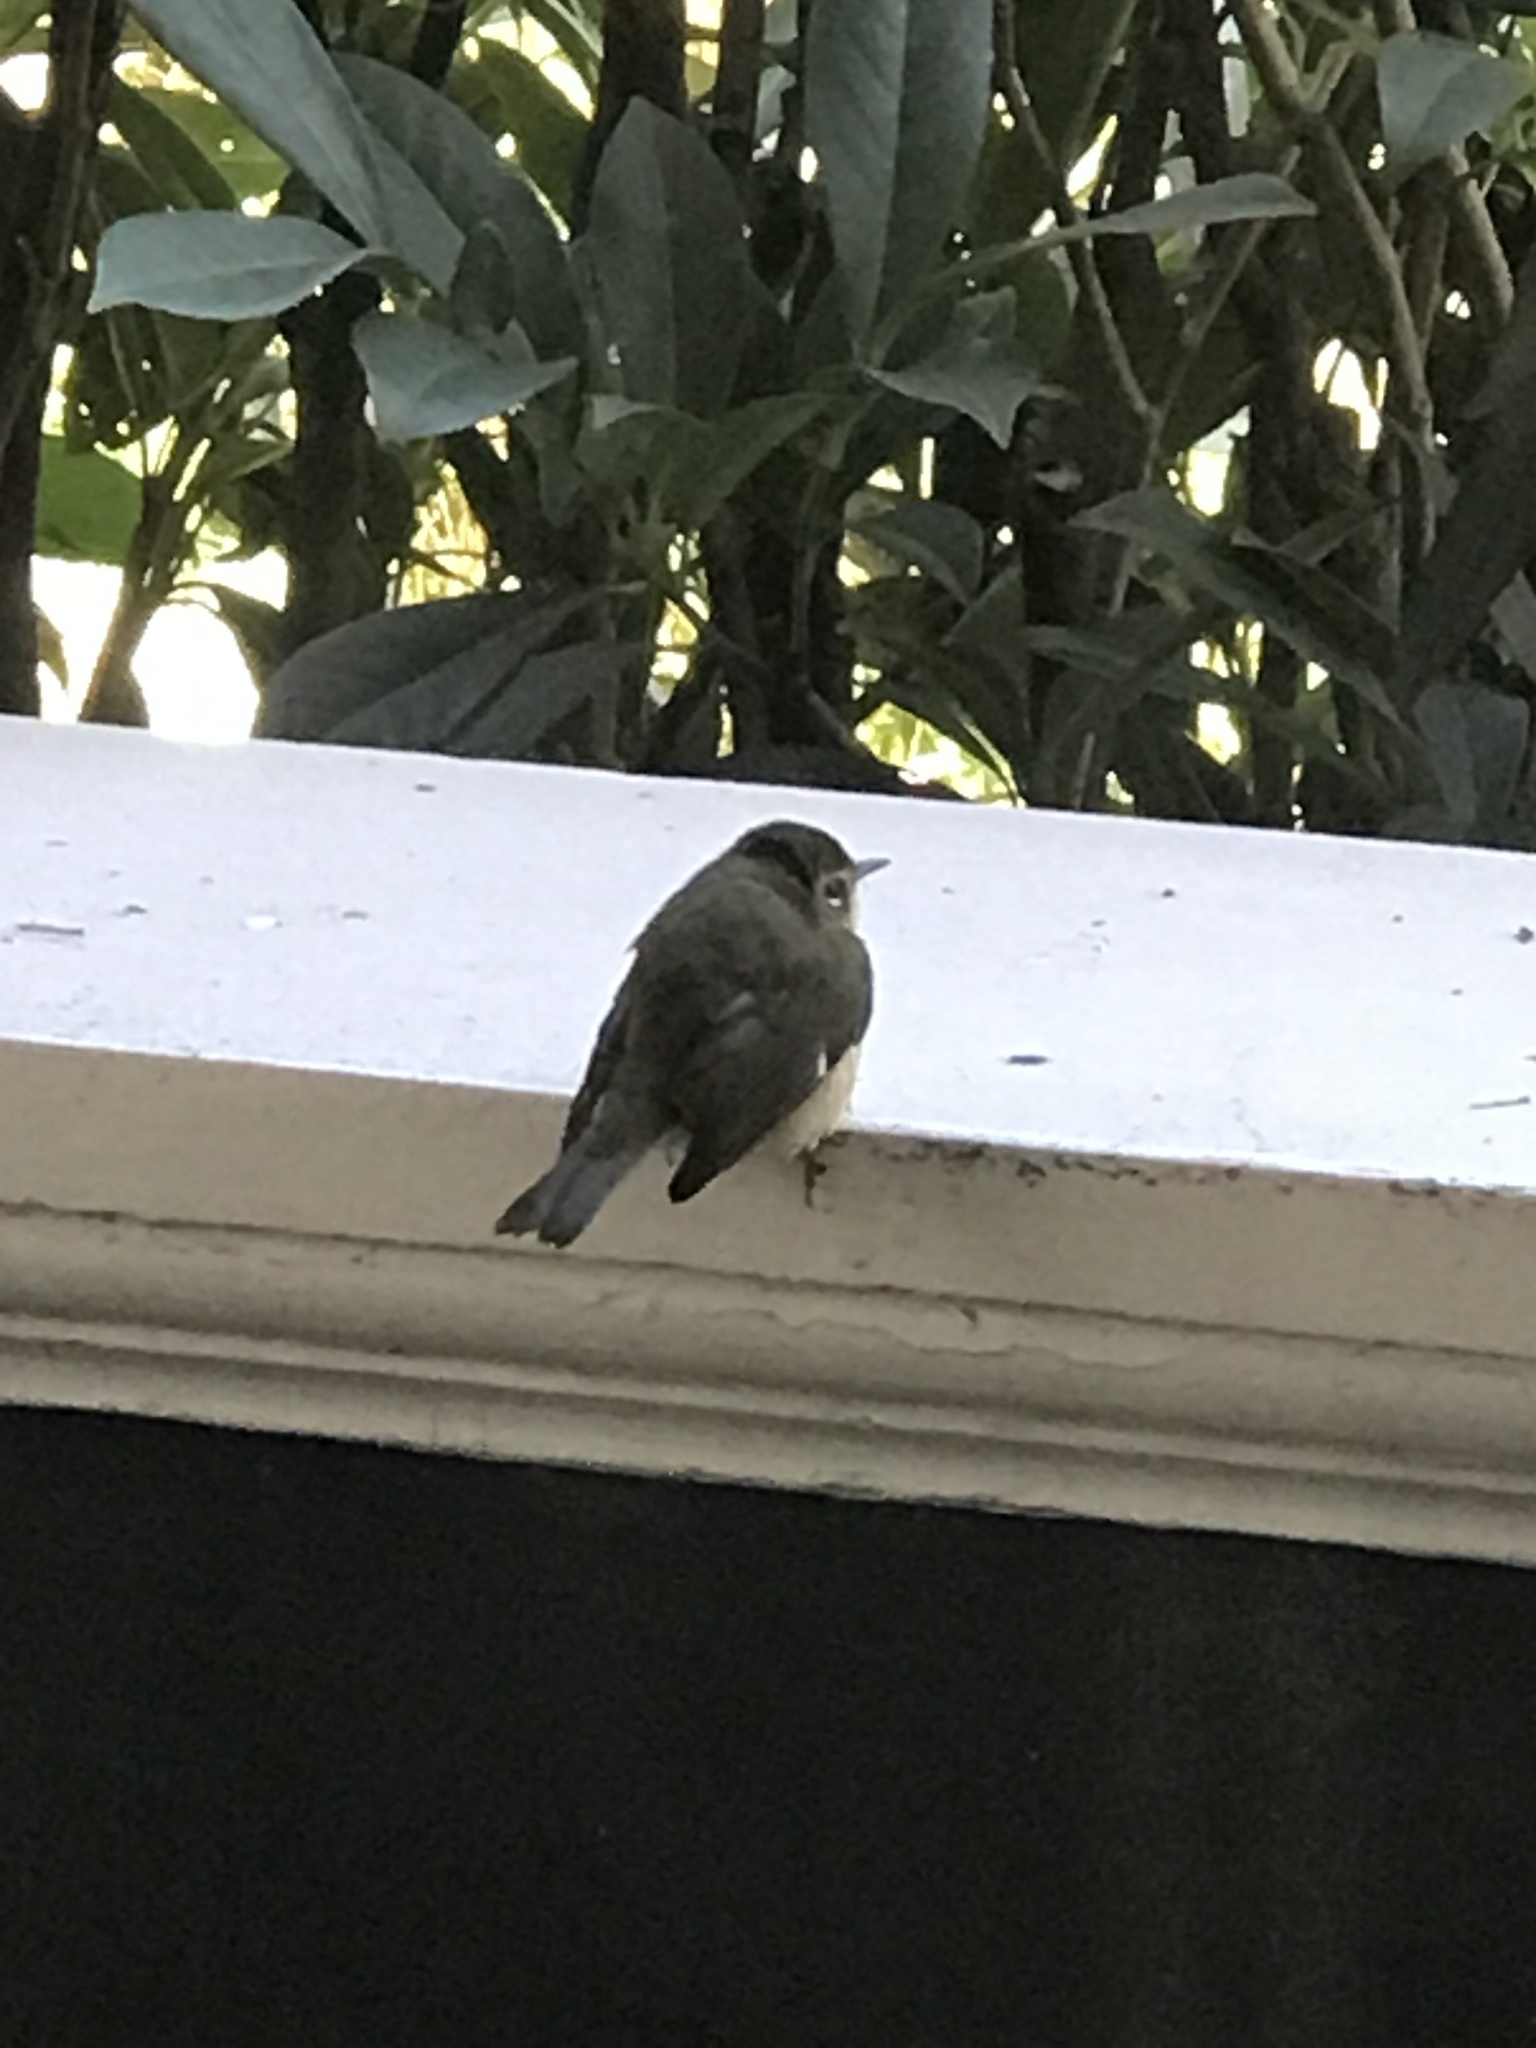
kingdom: Animalia
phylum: Chordata
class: Aves
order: Passeriformes
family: Parulidae
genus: Setophaga
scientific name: Setophaga caerulescens
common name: Black-throated blue warbler
